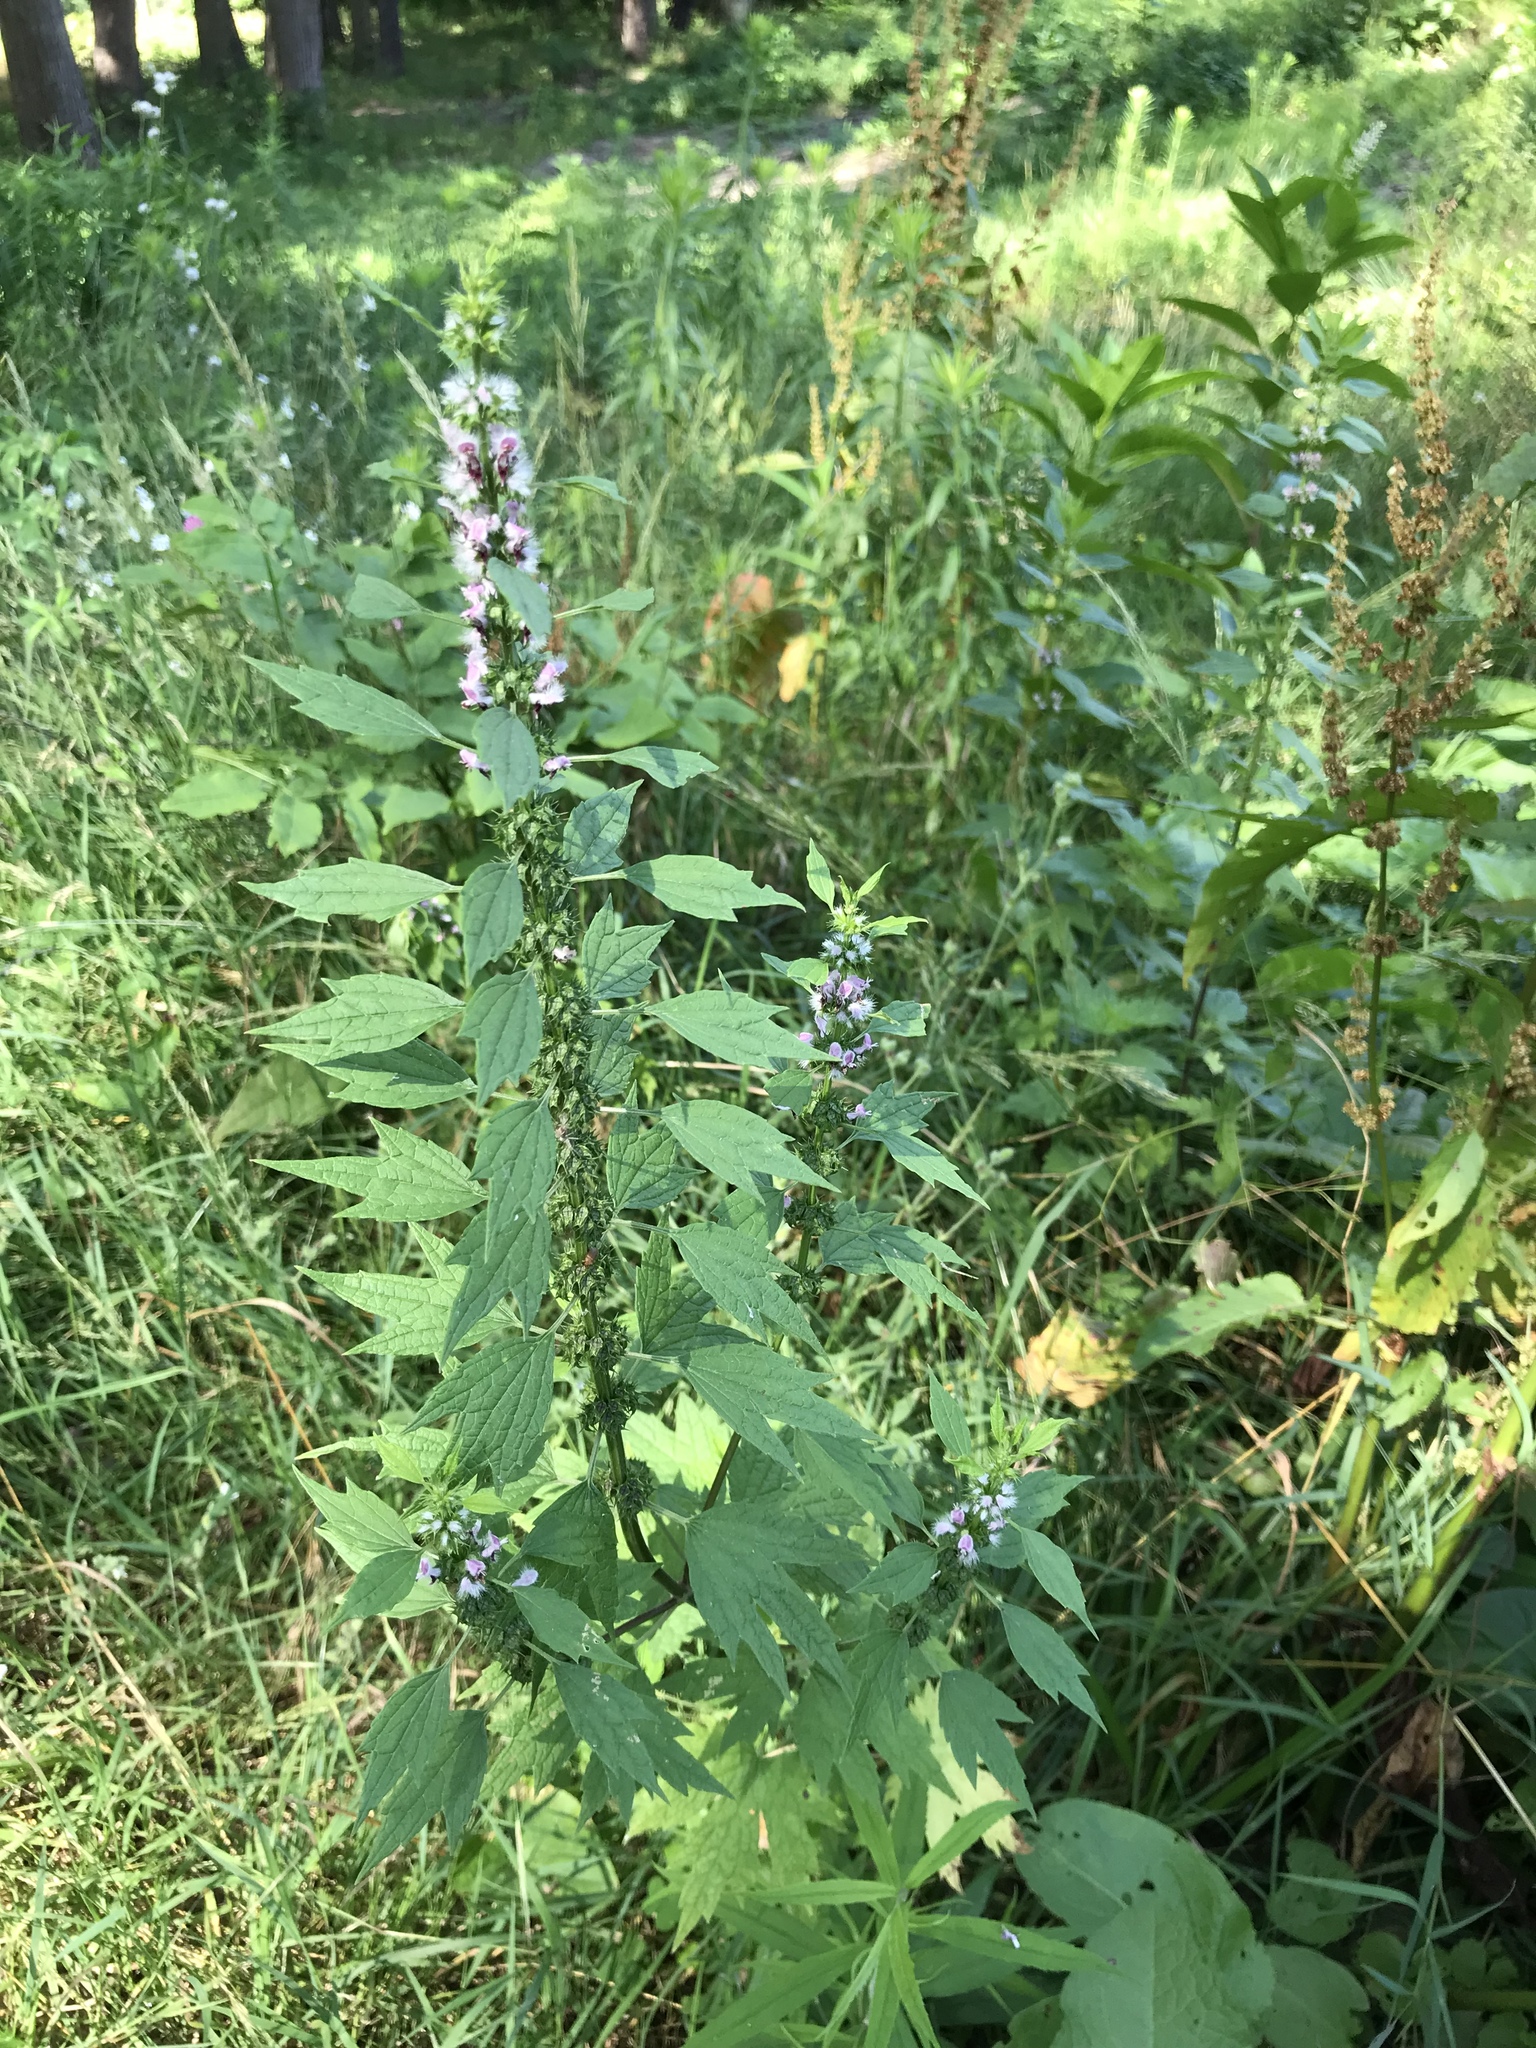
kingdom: Plantae
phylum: Tracheophyta
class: Magnoliopsida
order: Lamiales
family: Lamiaceae
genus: Leonurus
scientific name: Leonurus cardiaca
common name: Motherwort
